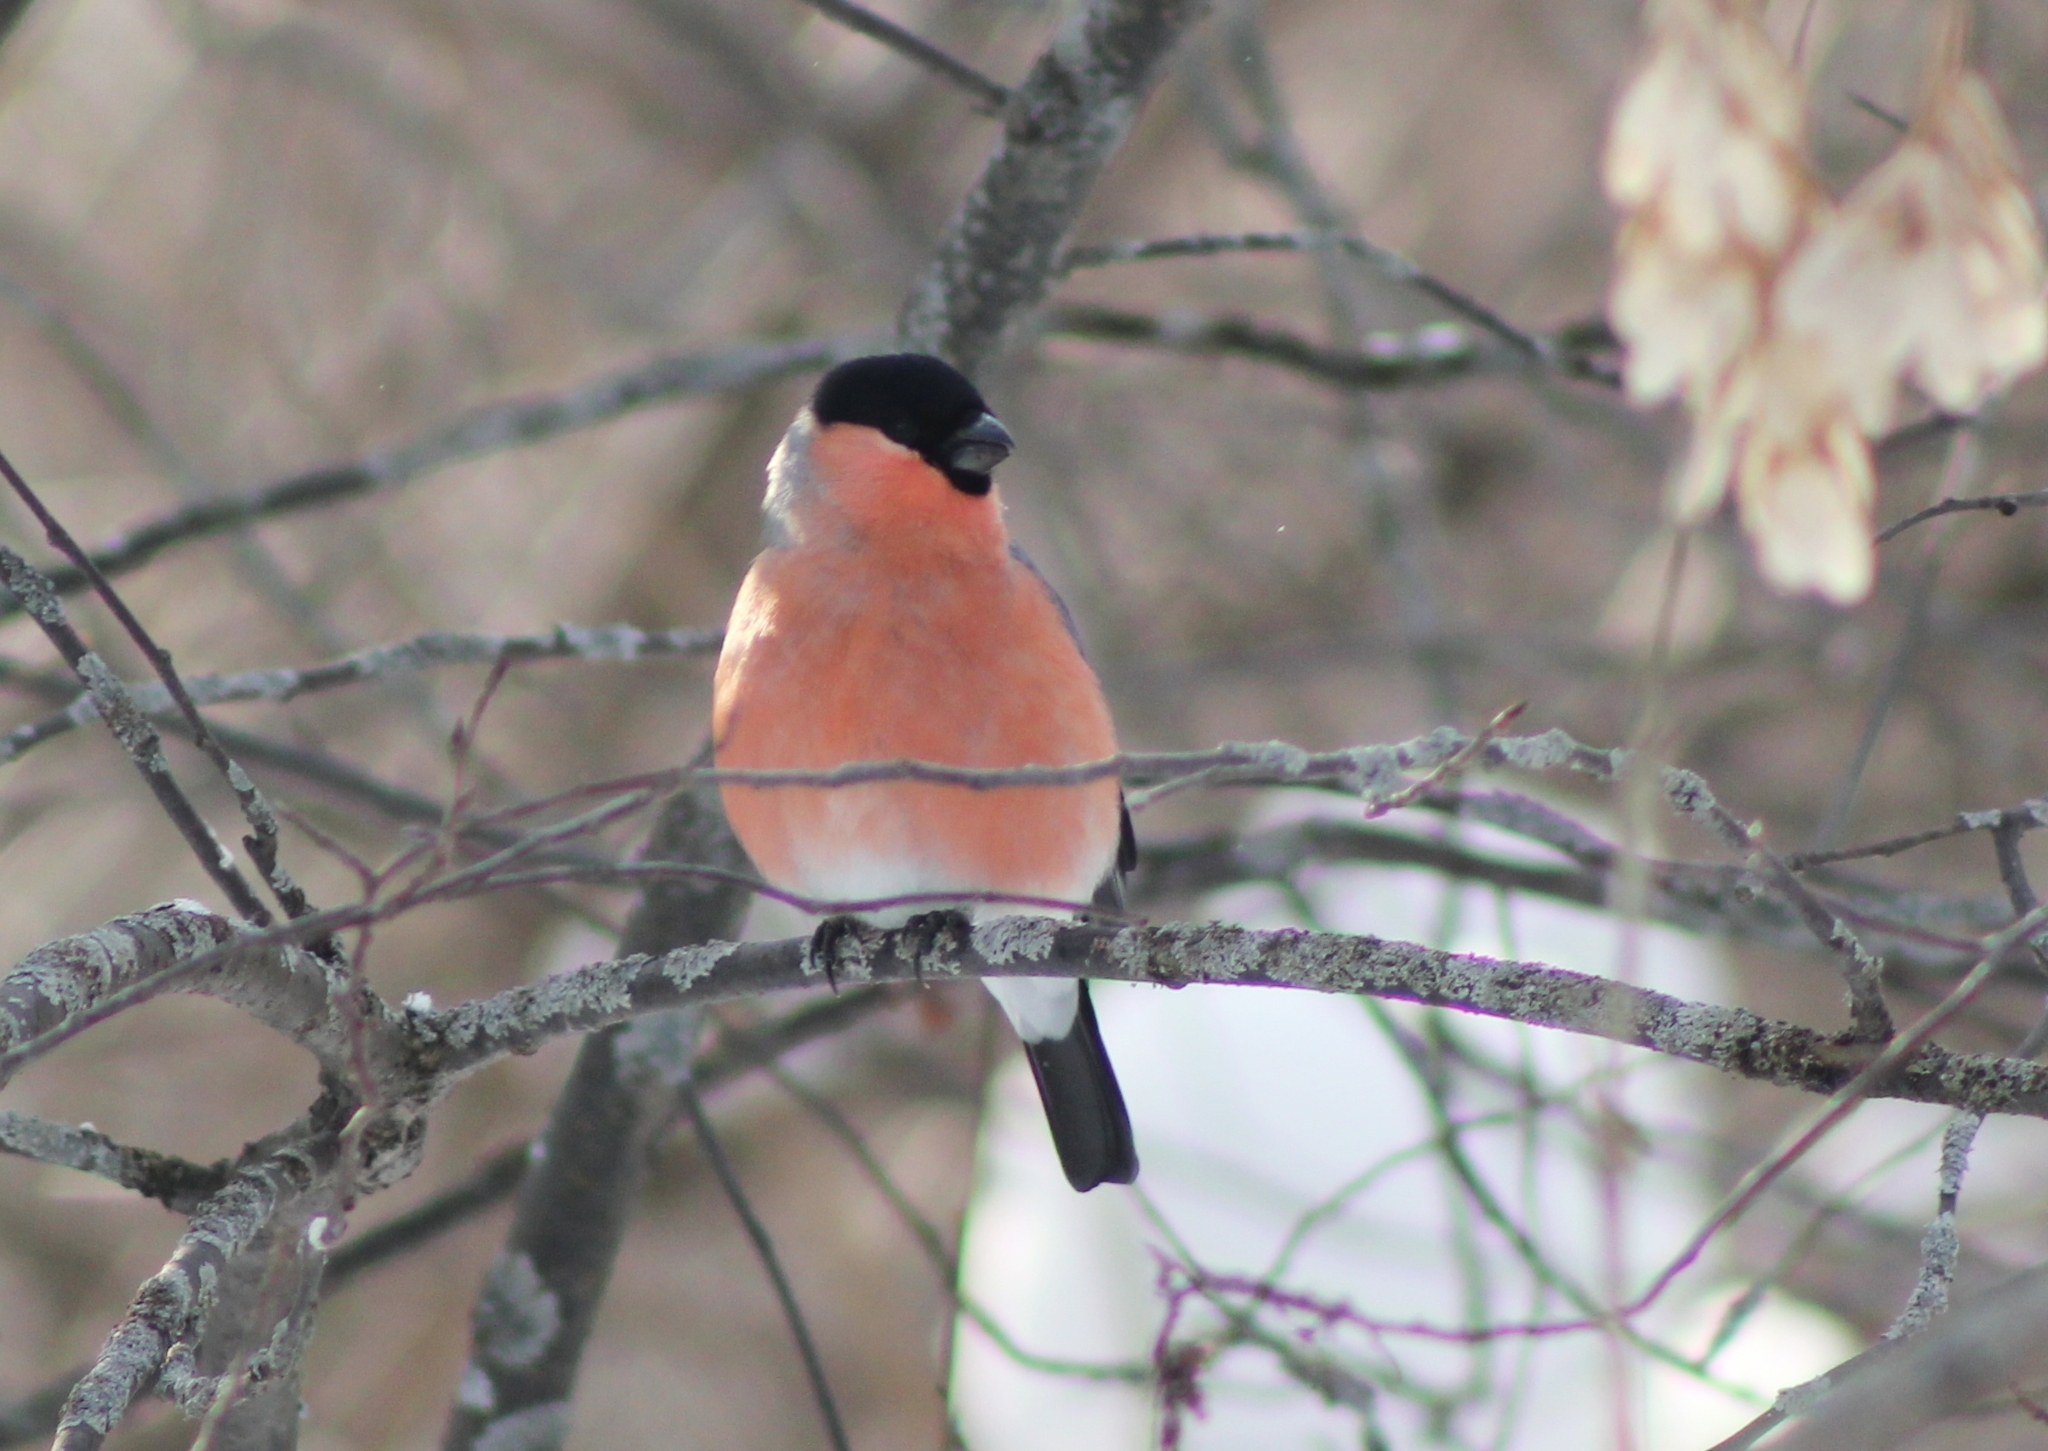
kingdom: Animalia
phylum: Chordata
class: Aves
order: Passeriformes
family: Fringillidae
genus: Pyrrhula
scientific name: Pyrrhula pyrrhula
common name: Eurasian bullfinch
